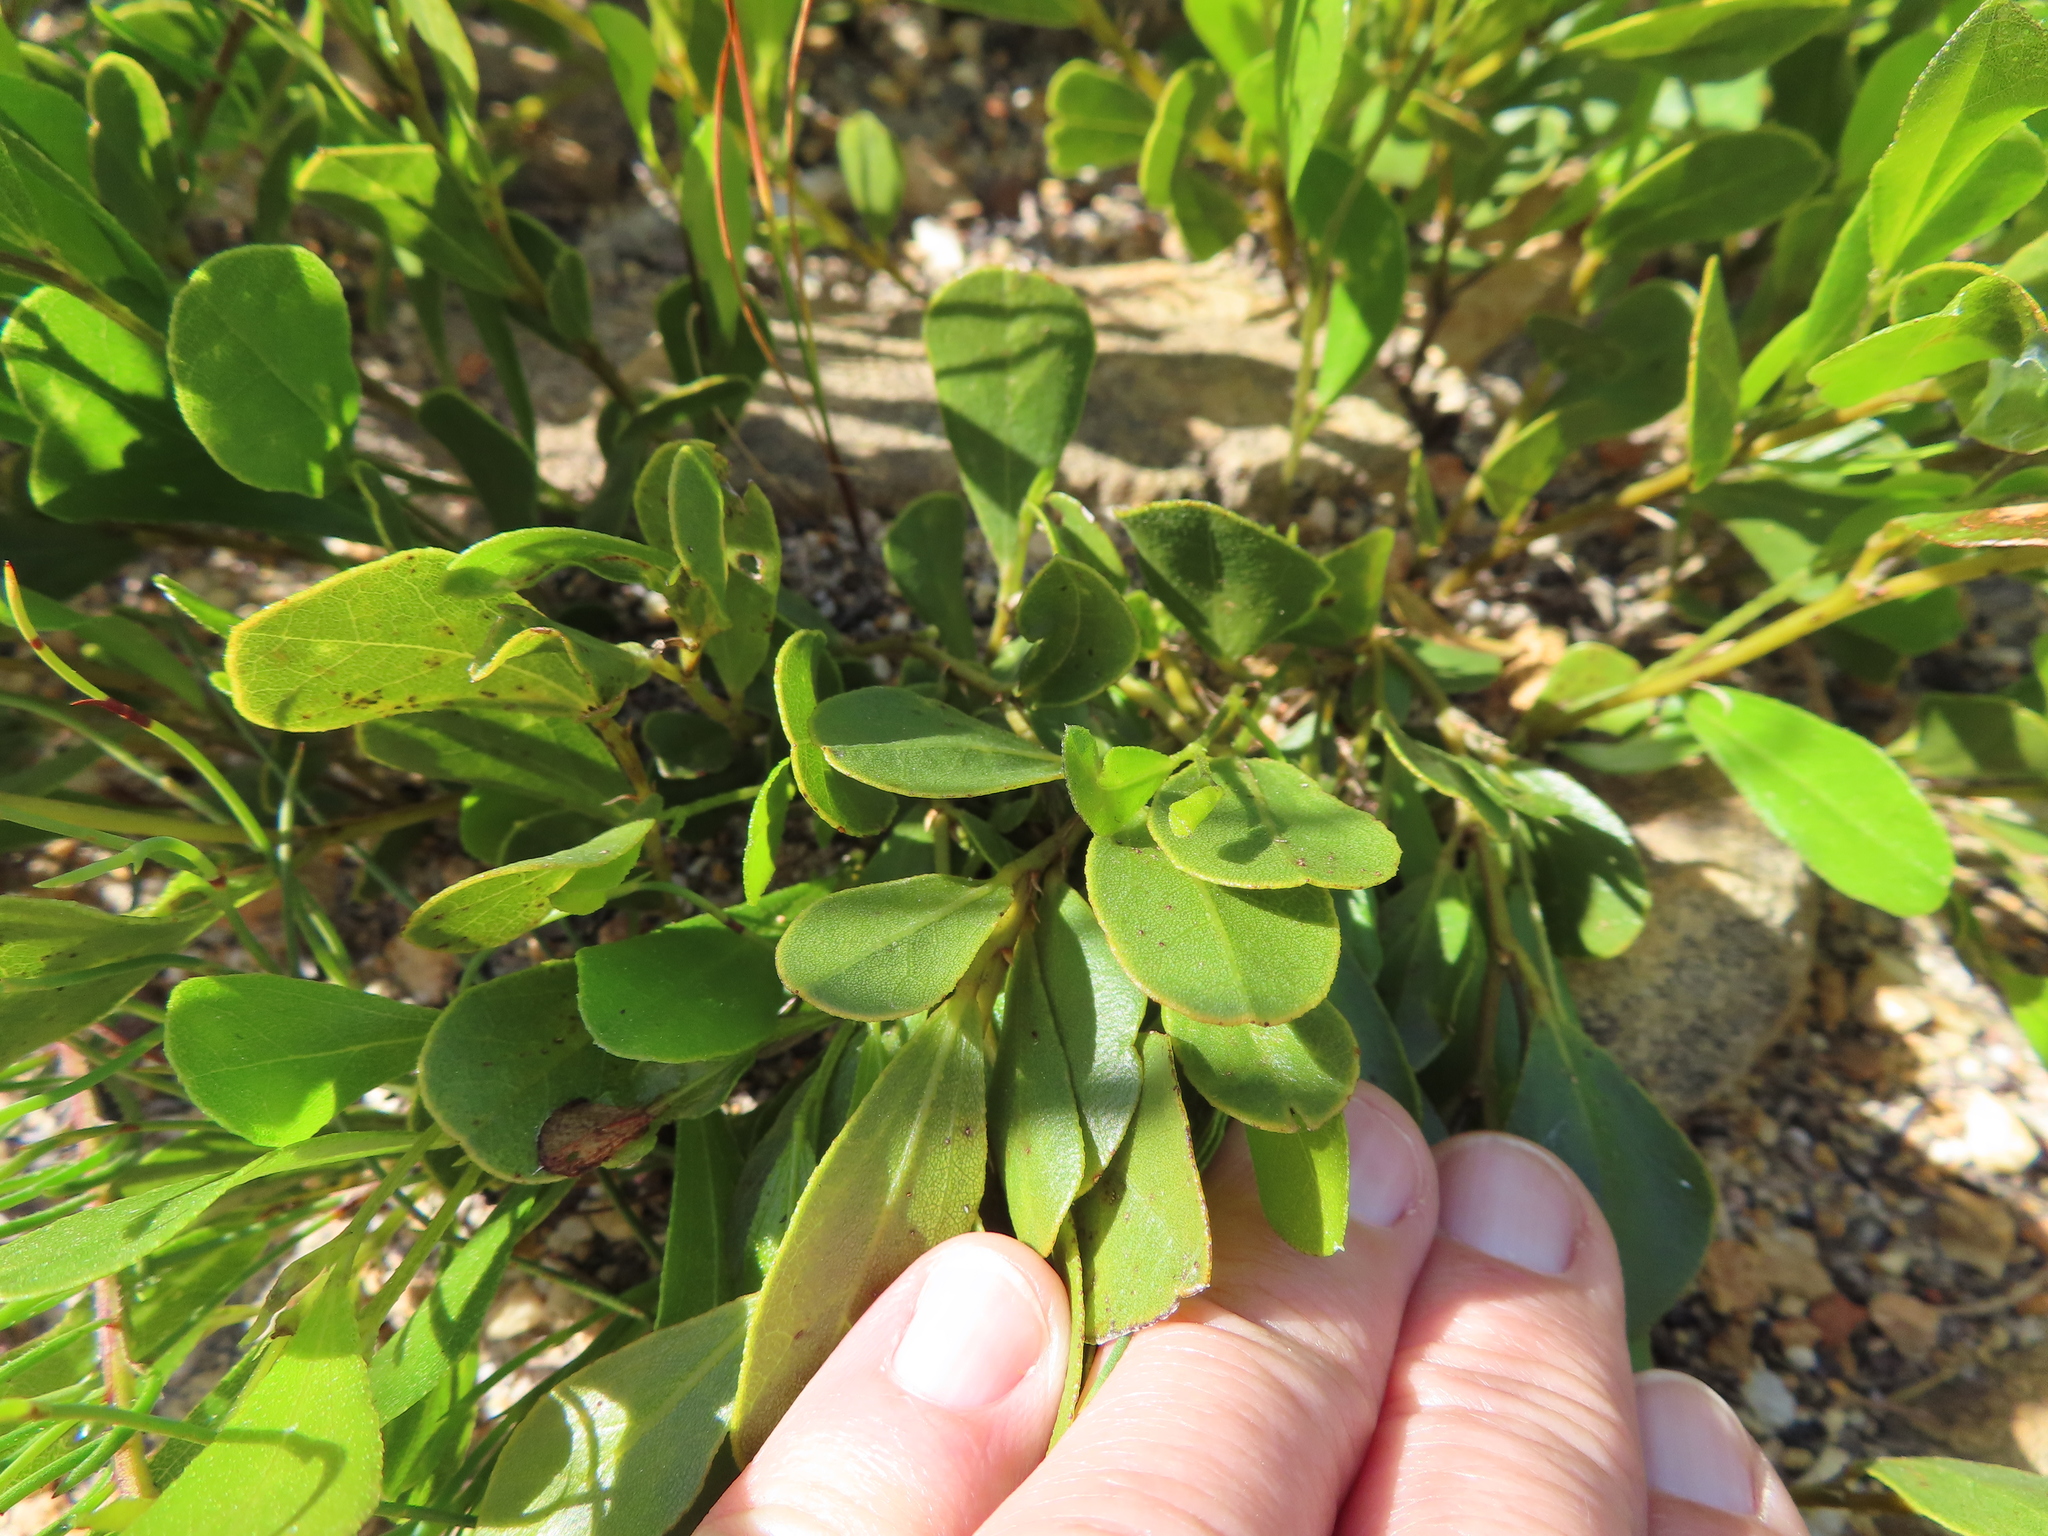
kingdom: Plantae
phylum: Tracheophyta
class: Magnoliopsida
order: Fabales
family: Fabaceae
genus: Psoralea
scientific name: Psoralea rotundifolia
